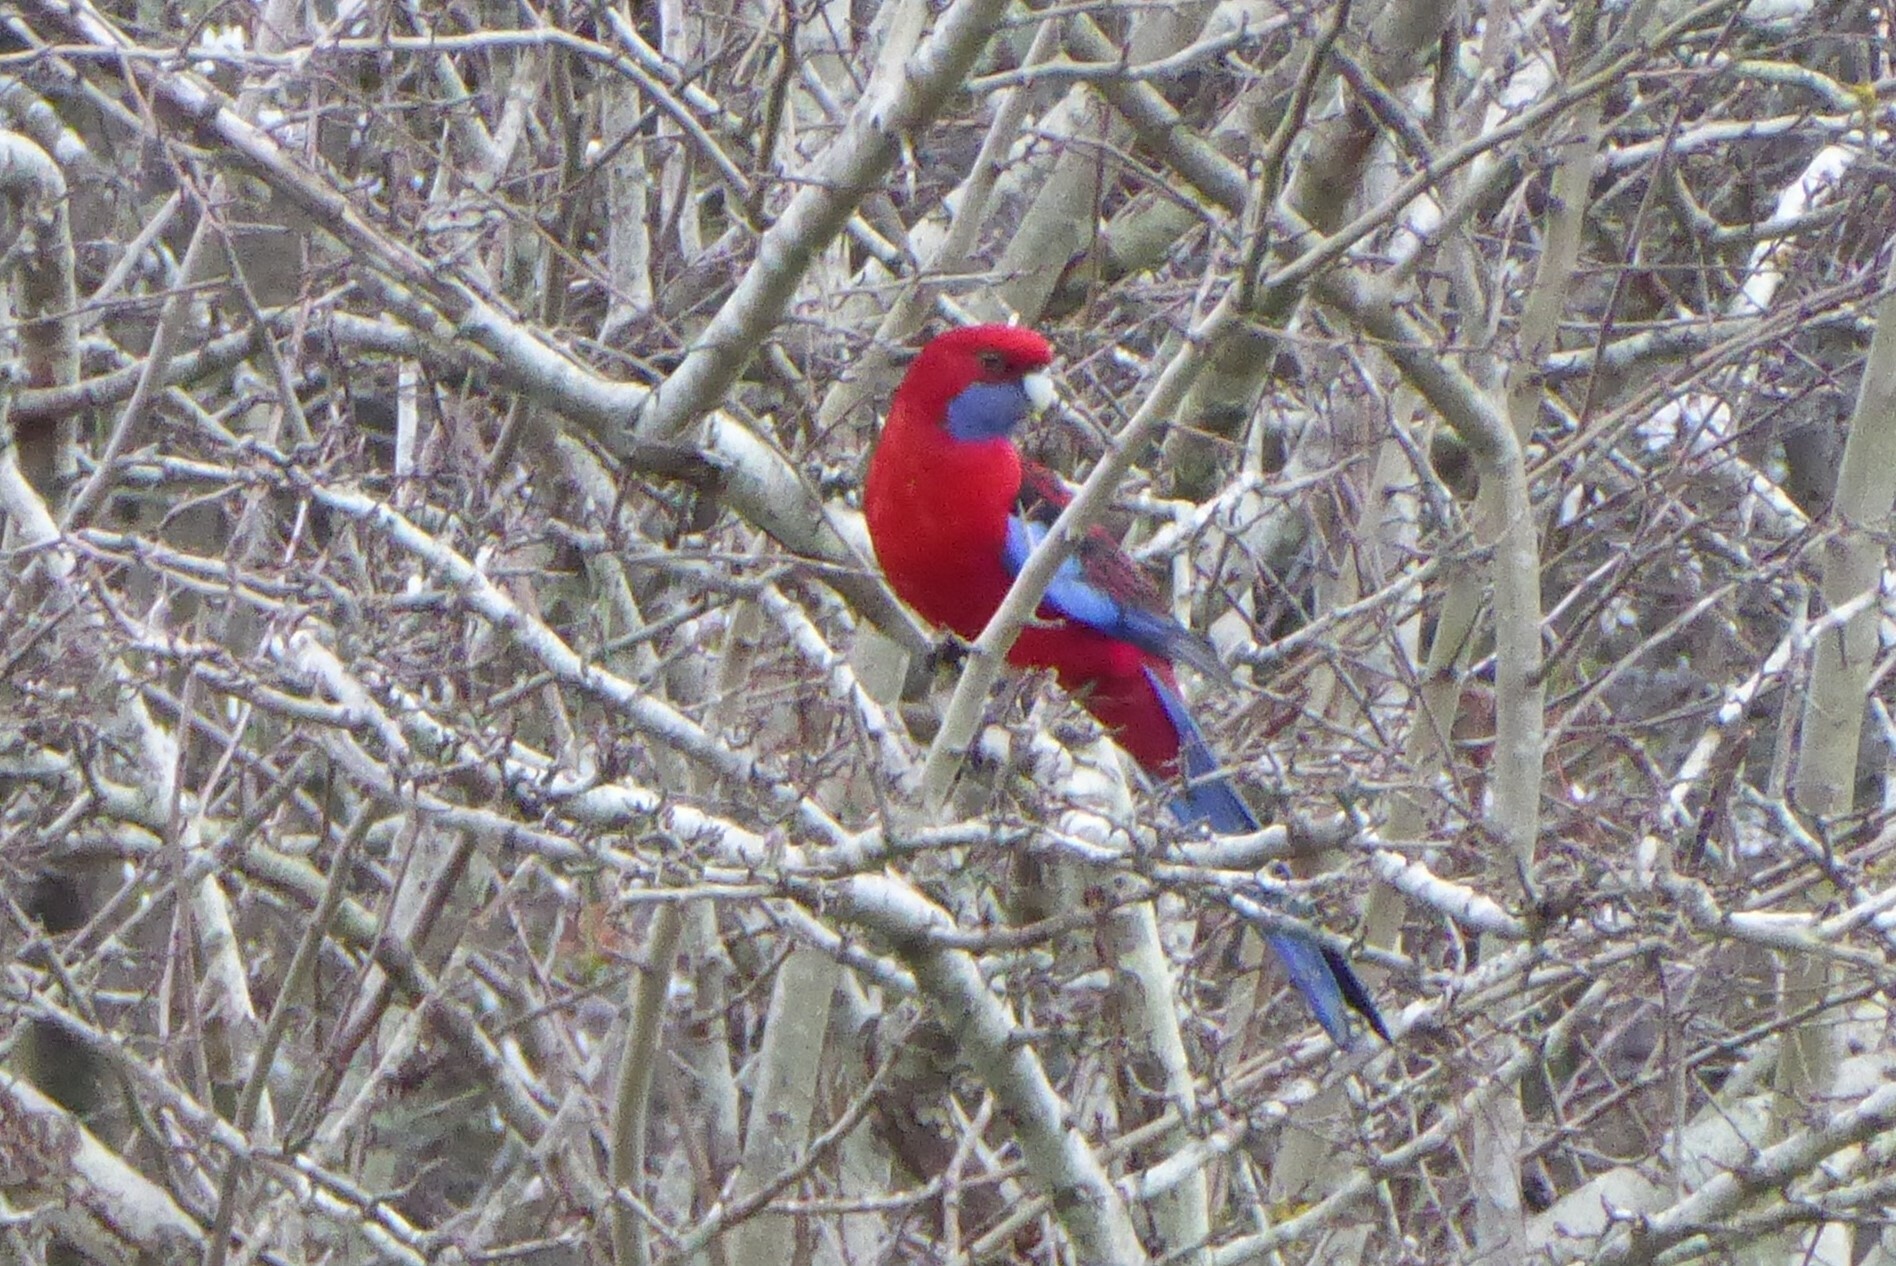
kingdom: Animalia
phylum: Chordata
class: Aves
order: Psittaciformes
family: Psittacidae
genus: Platycercus
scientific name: Platycercus elegans
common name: Crimson rosella
